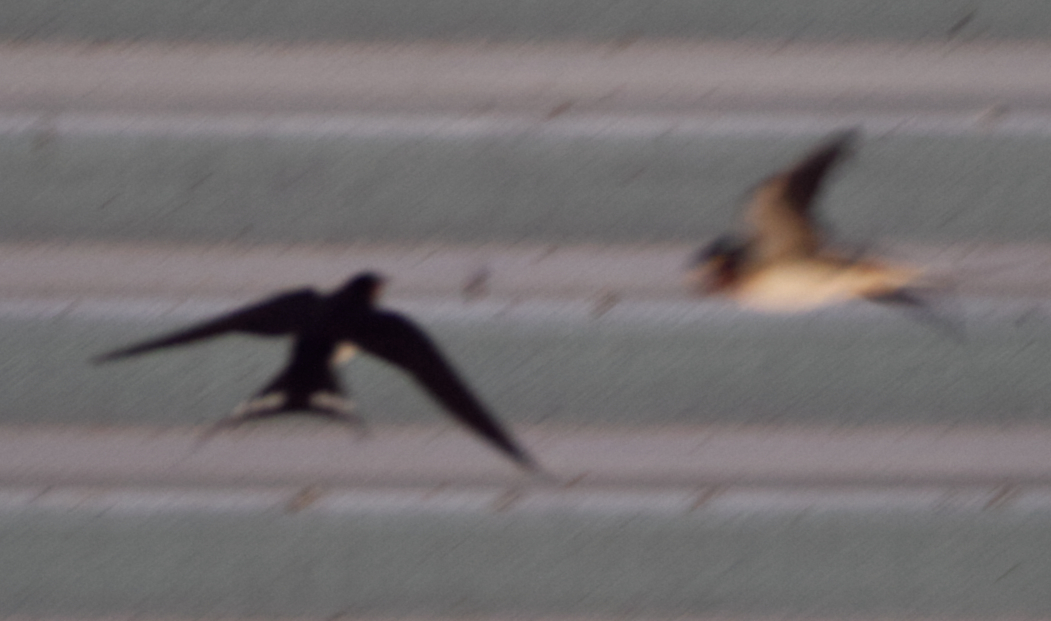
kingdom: Animalia
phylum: Chordata
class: Aves
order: Passeriformes
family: Hirundinidae
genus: Hirundo
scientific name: Hirundo rustica
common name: Barn swallow
